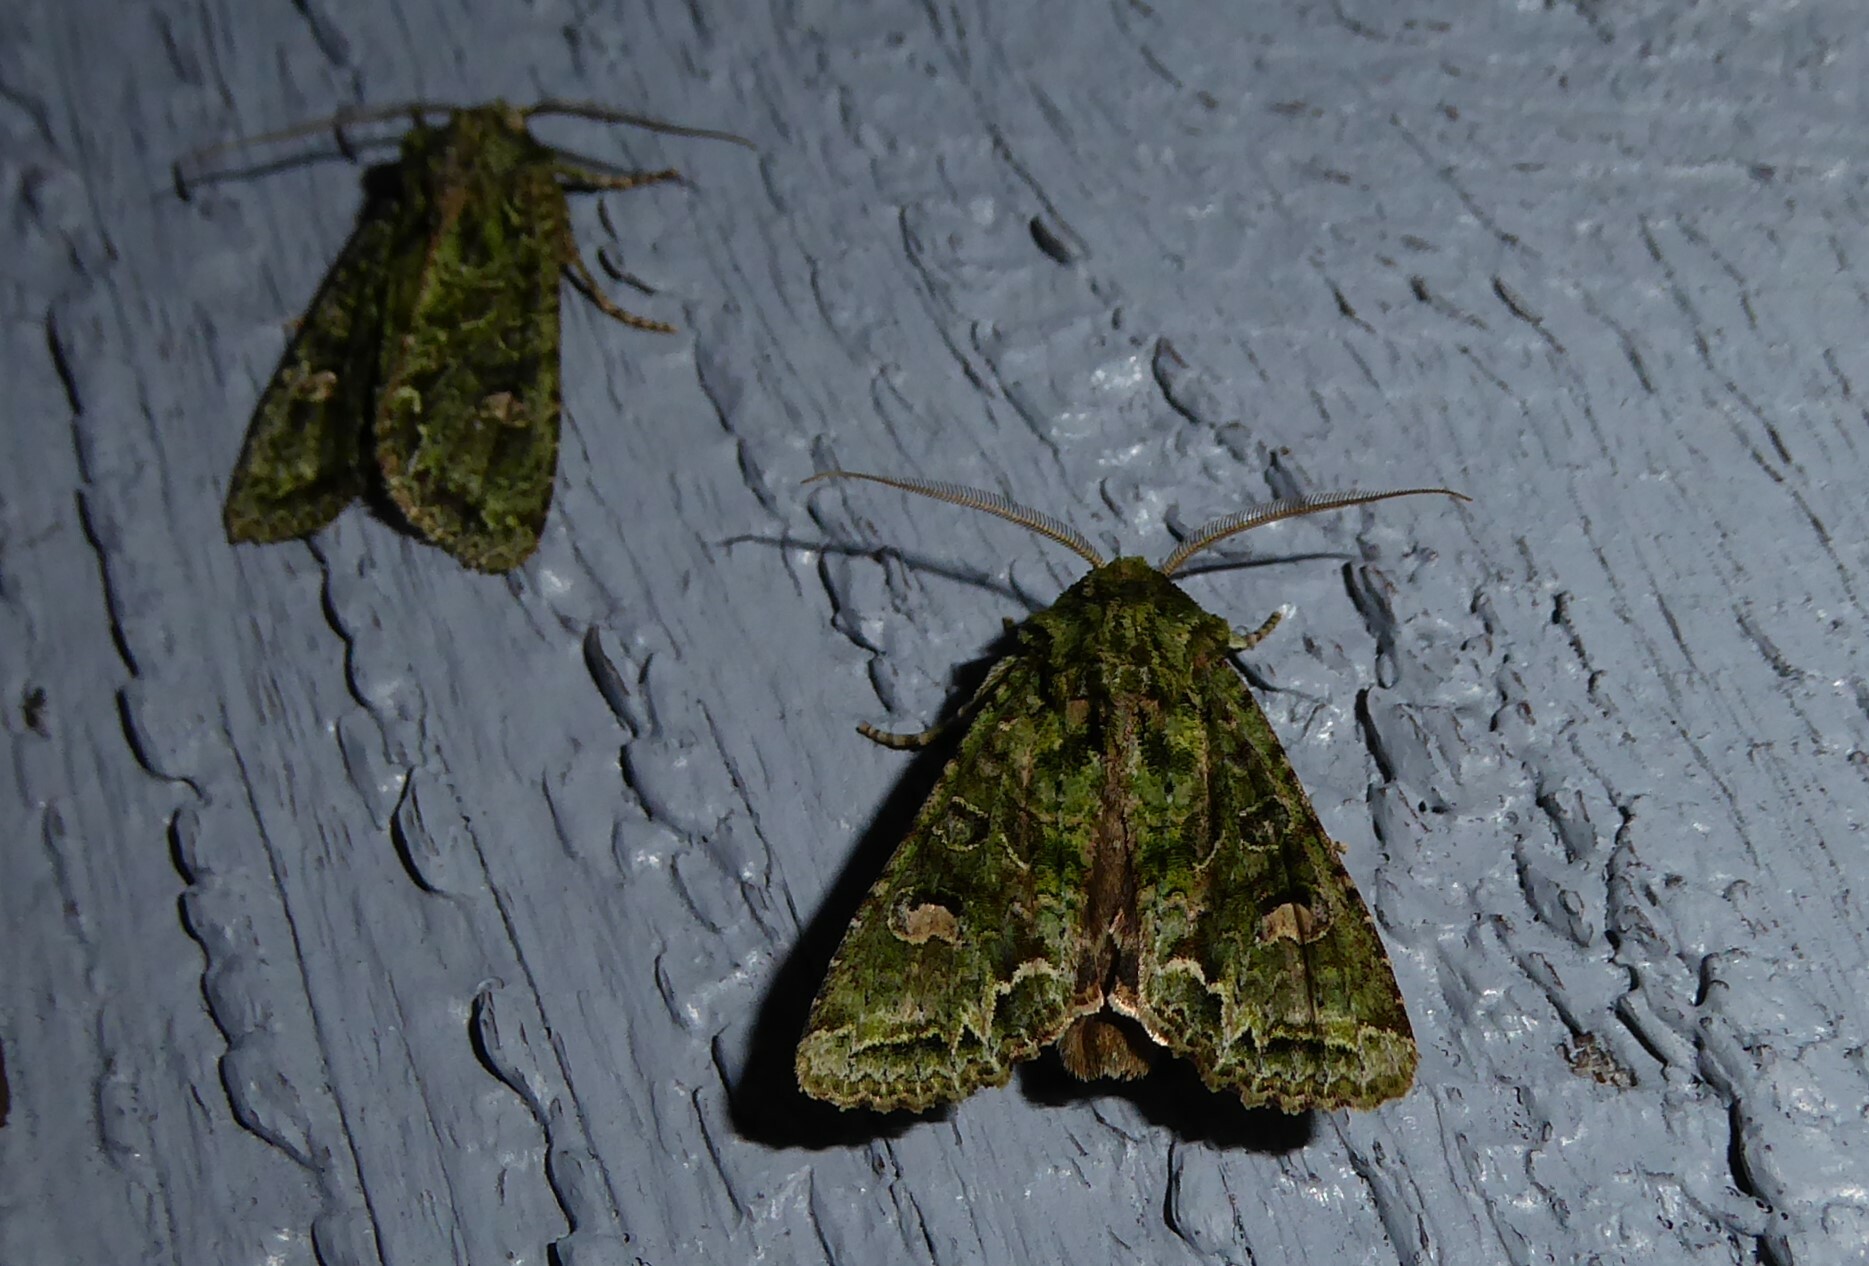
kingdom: Animalia
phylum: Arthropoda
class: Insecta
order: Lepidoptera
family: Noctuidae
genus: Ichneutica
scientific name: Ichneutica
